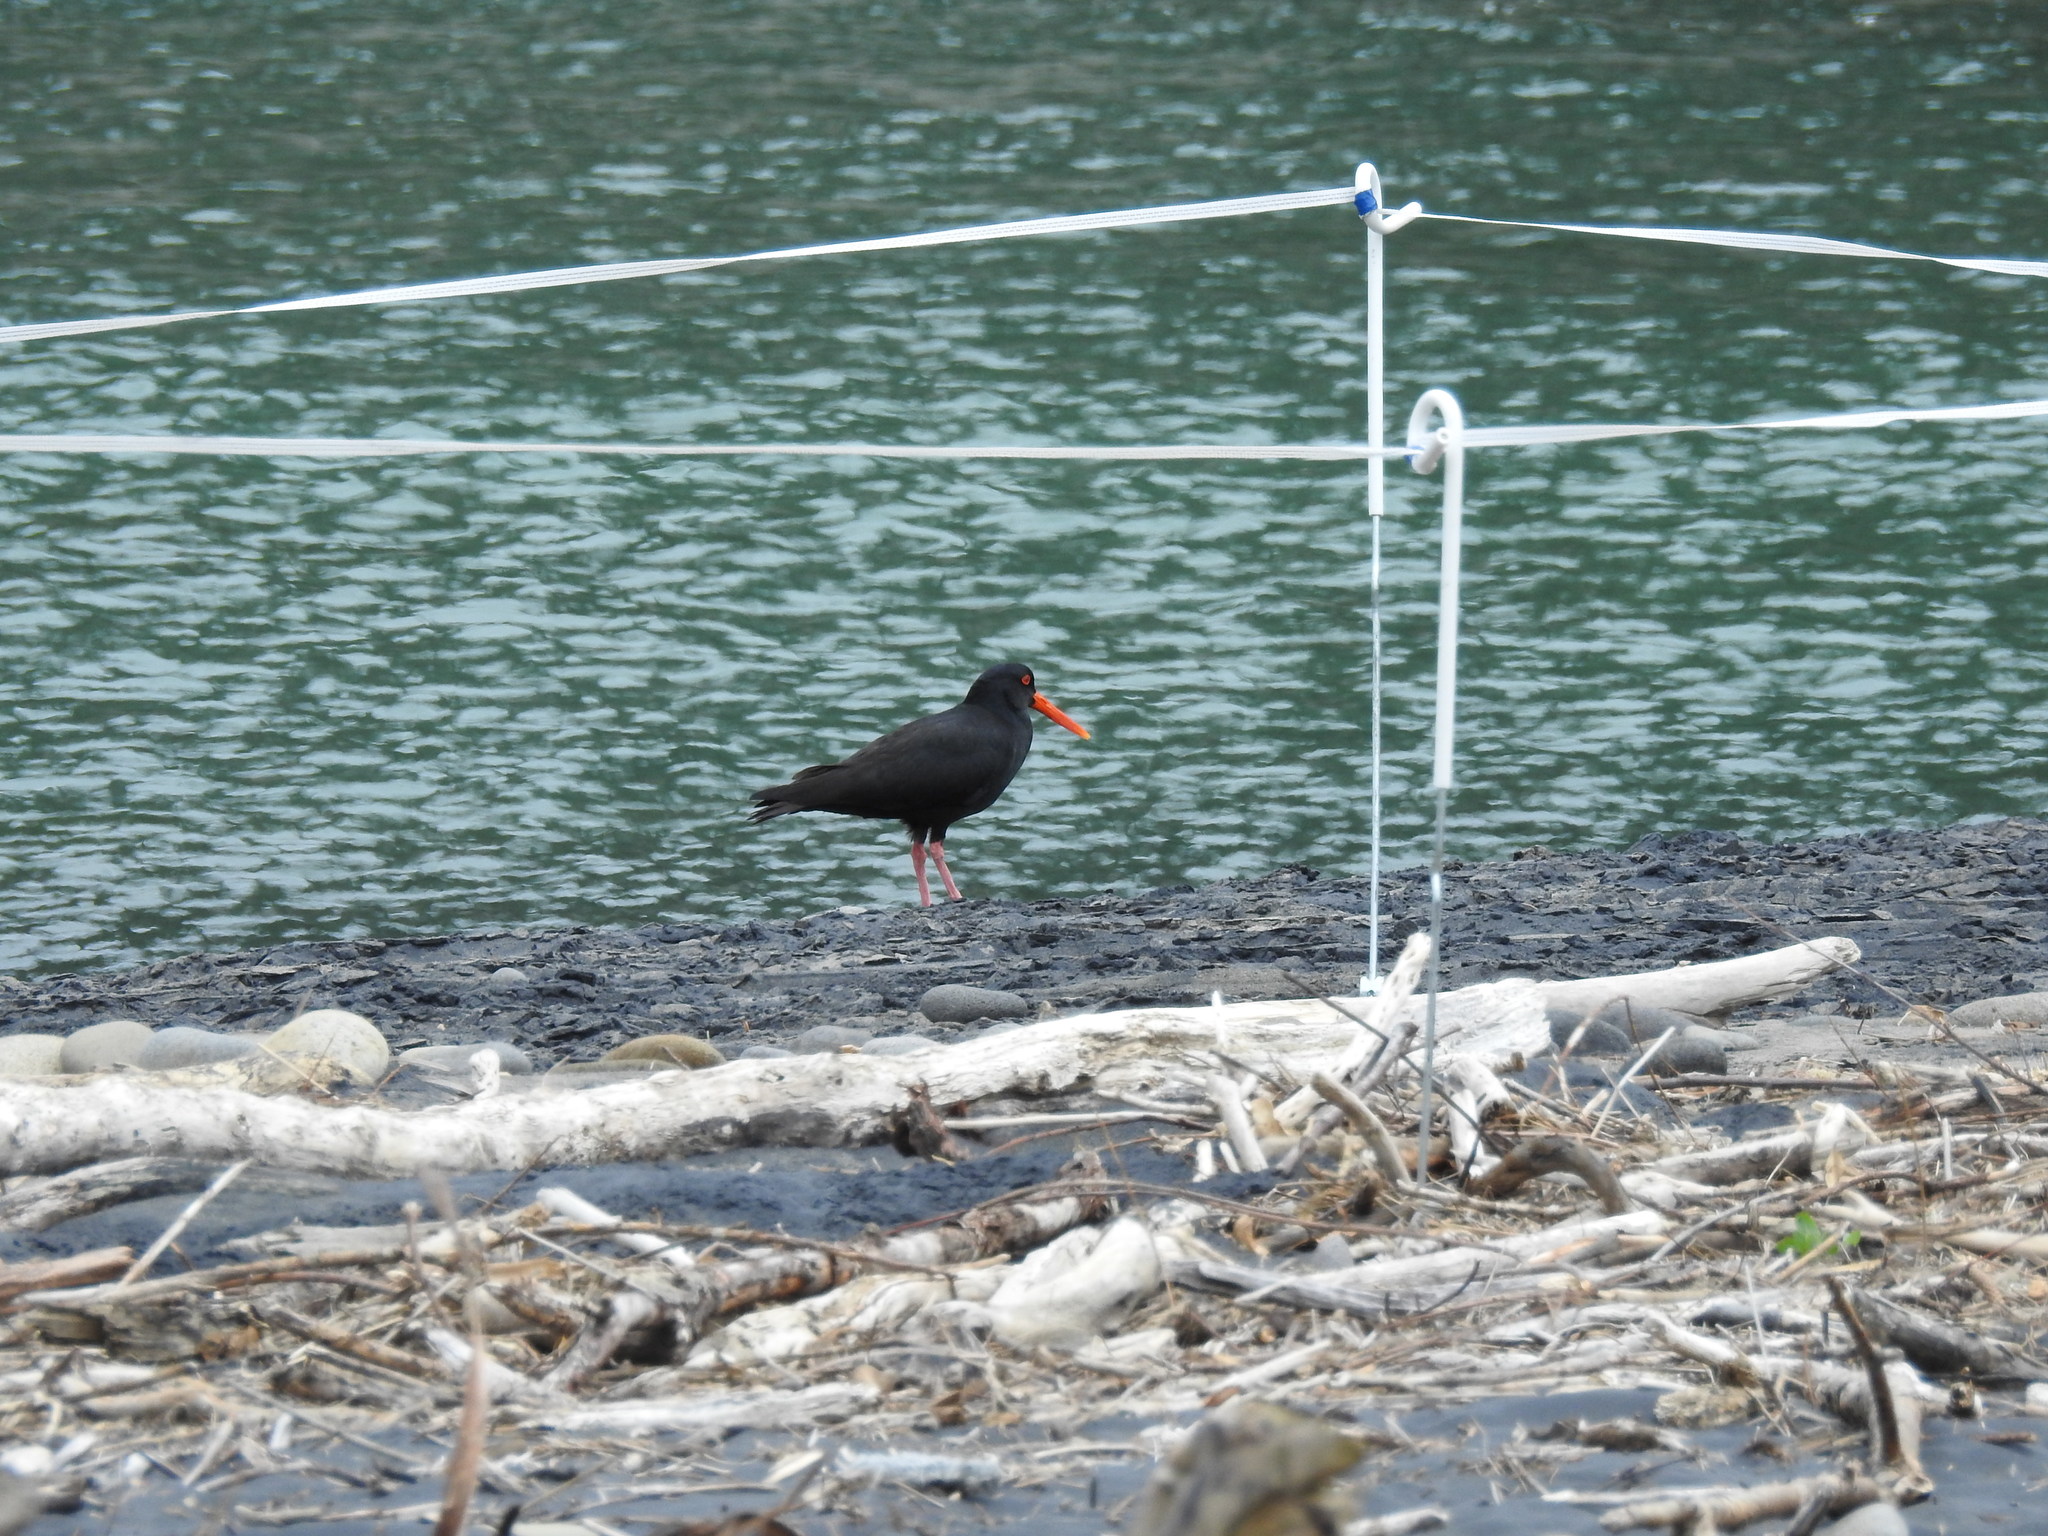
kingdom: Animalia
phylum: Chordata
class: Aves
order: Charadriiformes
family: Haematopodidae
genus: Haematopus
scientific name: Haematopus unicolor
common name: Variable oystercatcher
